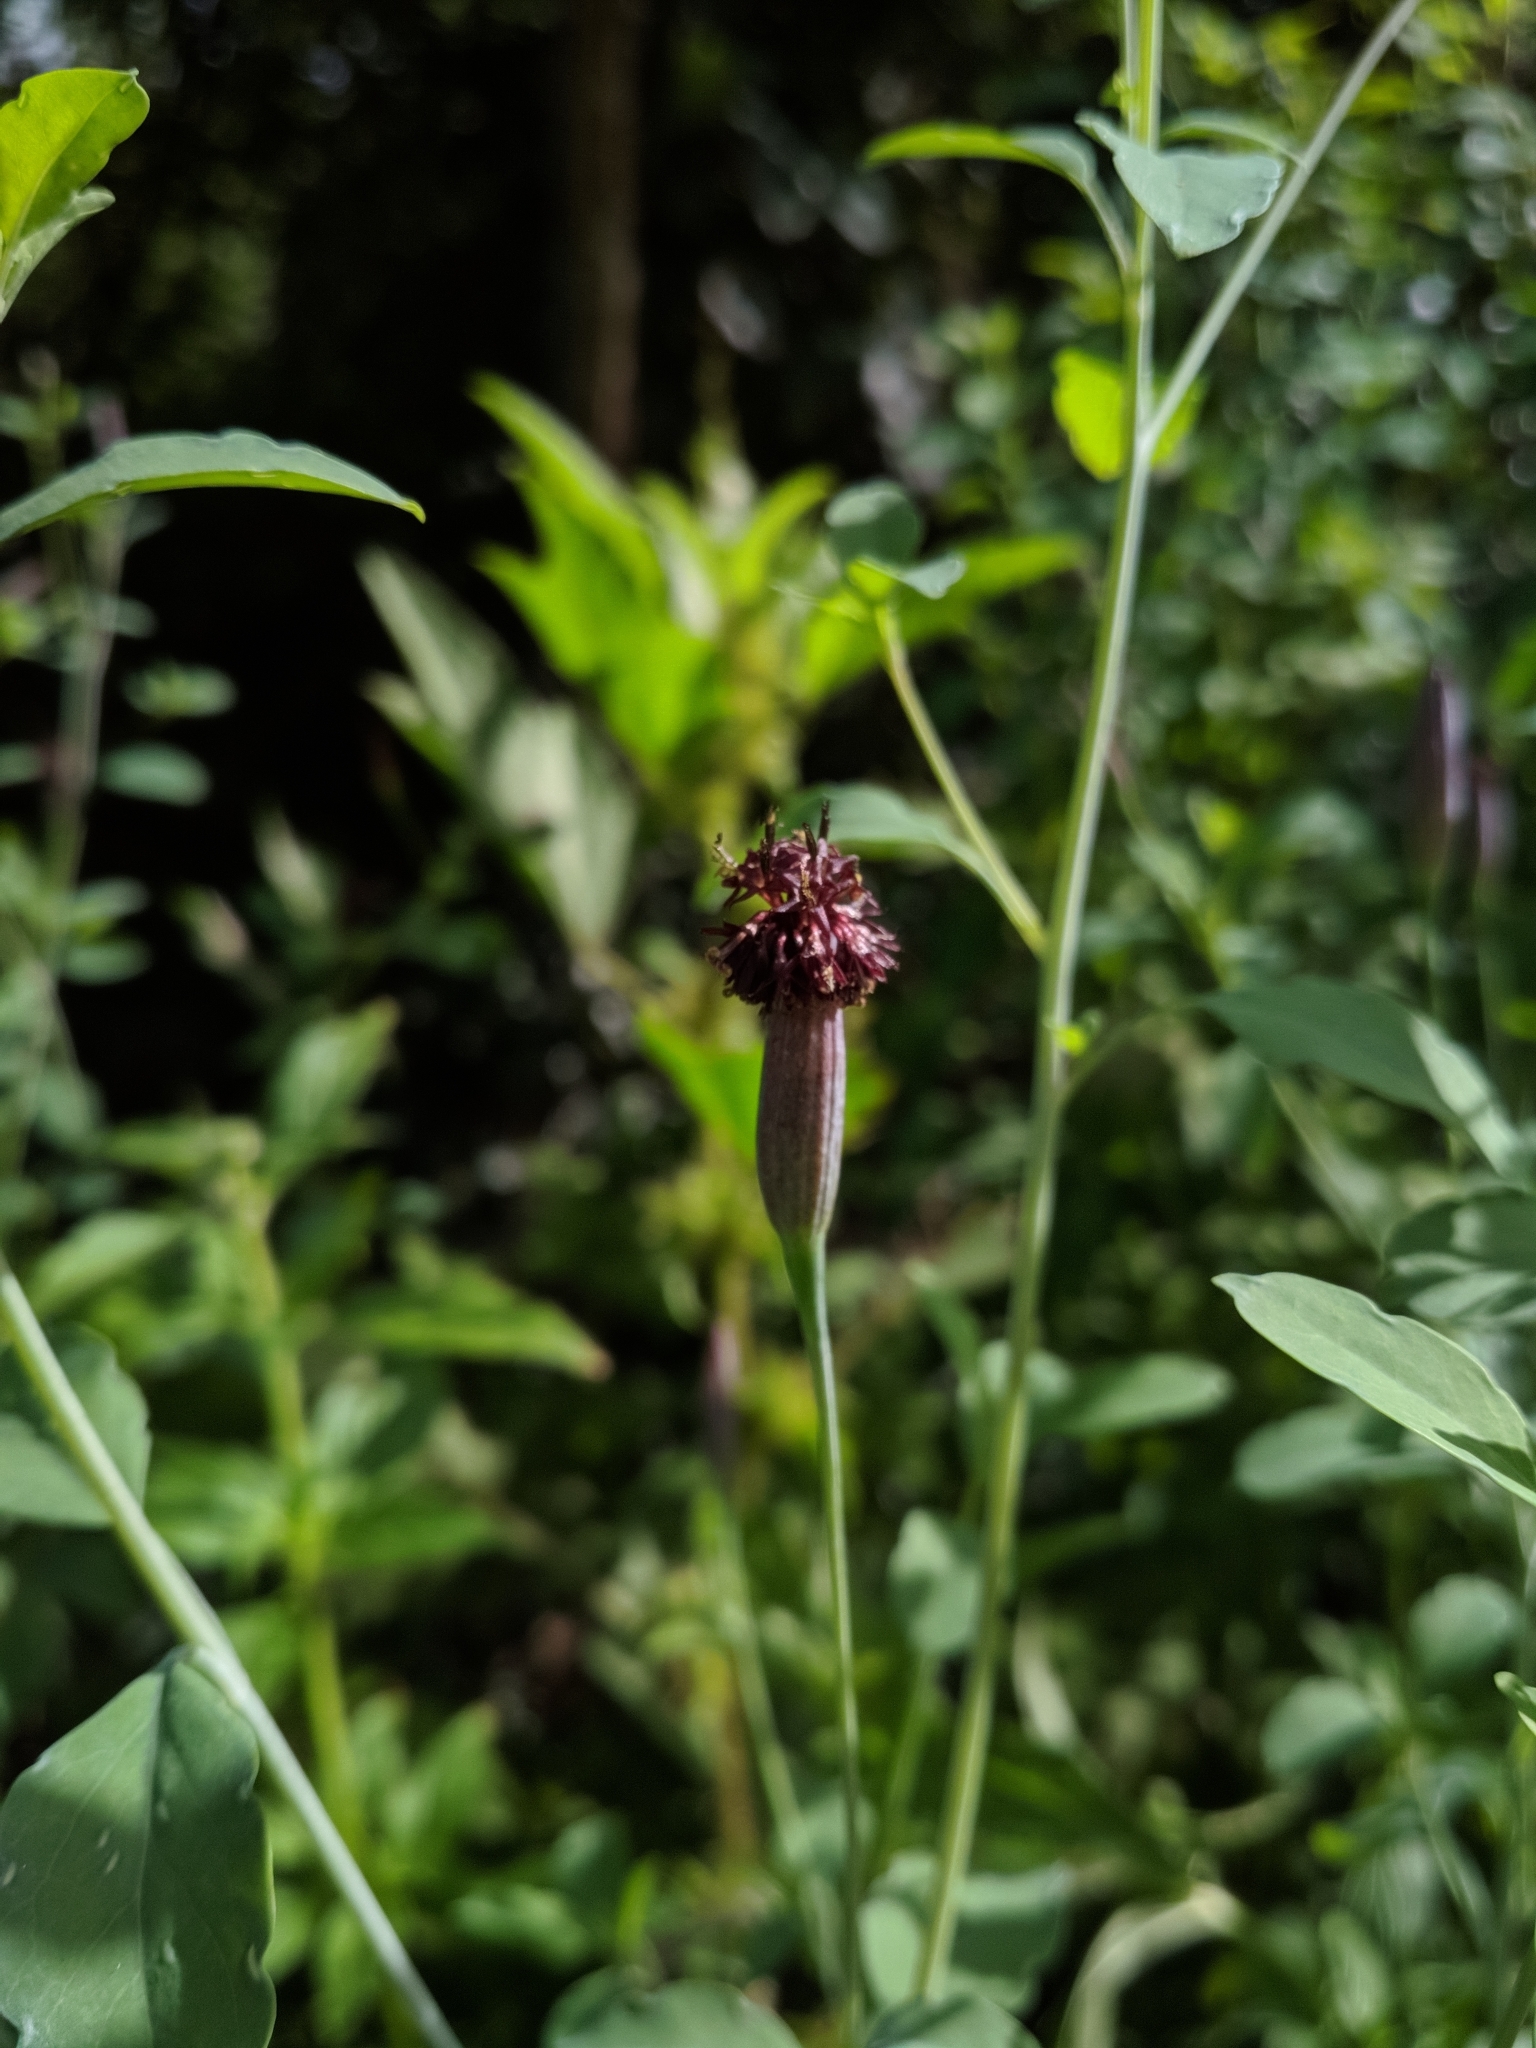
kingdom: Plantae
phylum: Tracheophyta
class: Magnoliopsida
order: Asterales
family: Asteraceae
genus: Porophyllum
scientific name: Porophyllum ruderale
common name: Yerba porosa
